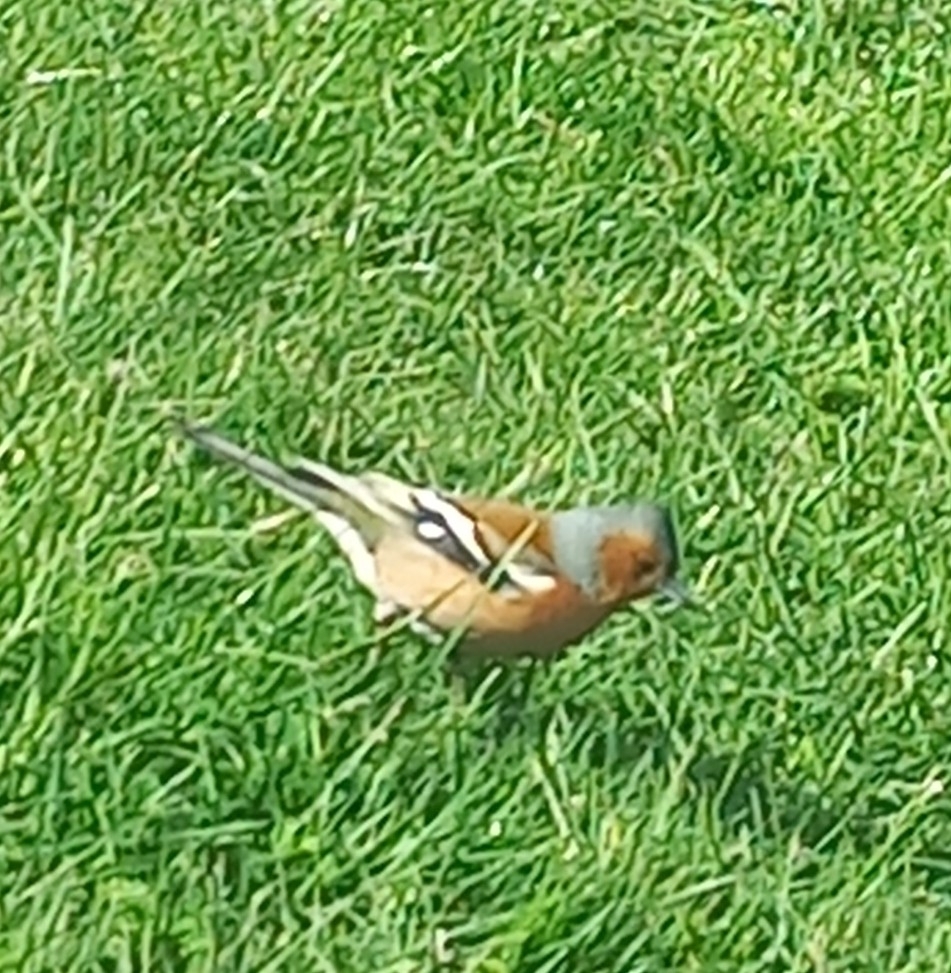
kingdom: Animalia
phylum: Chordata
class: Aves
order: Passeriformes
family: Fringillidae
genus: Fringilla
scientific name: Fringilla coelebs
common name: Common chaffinch
